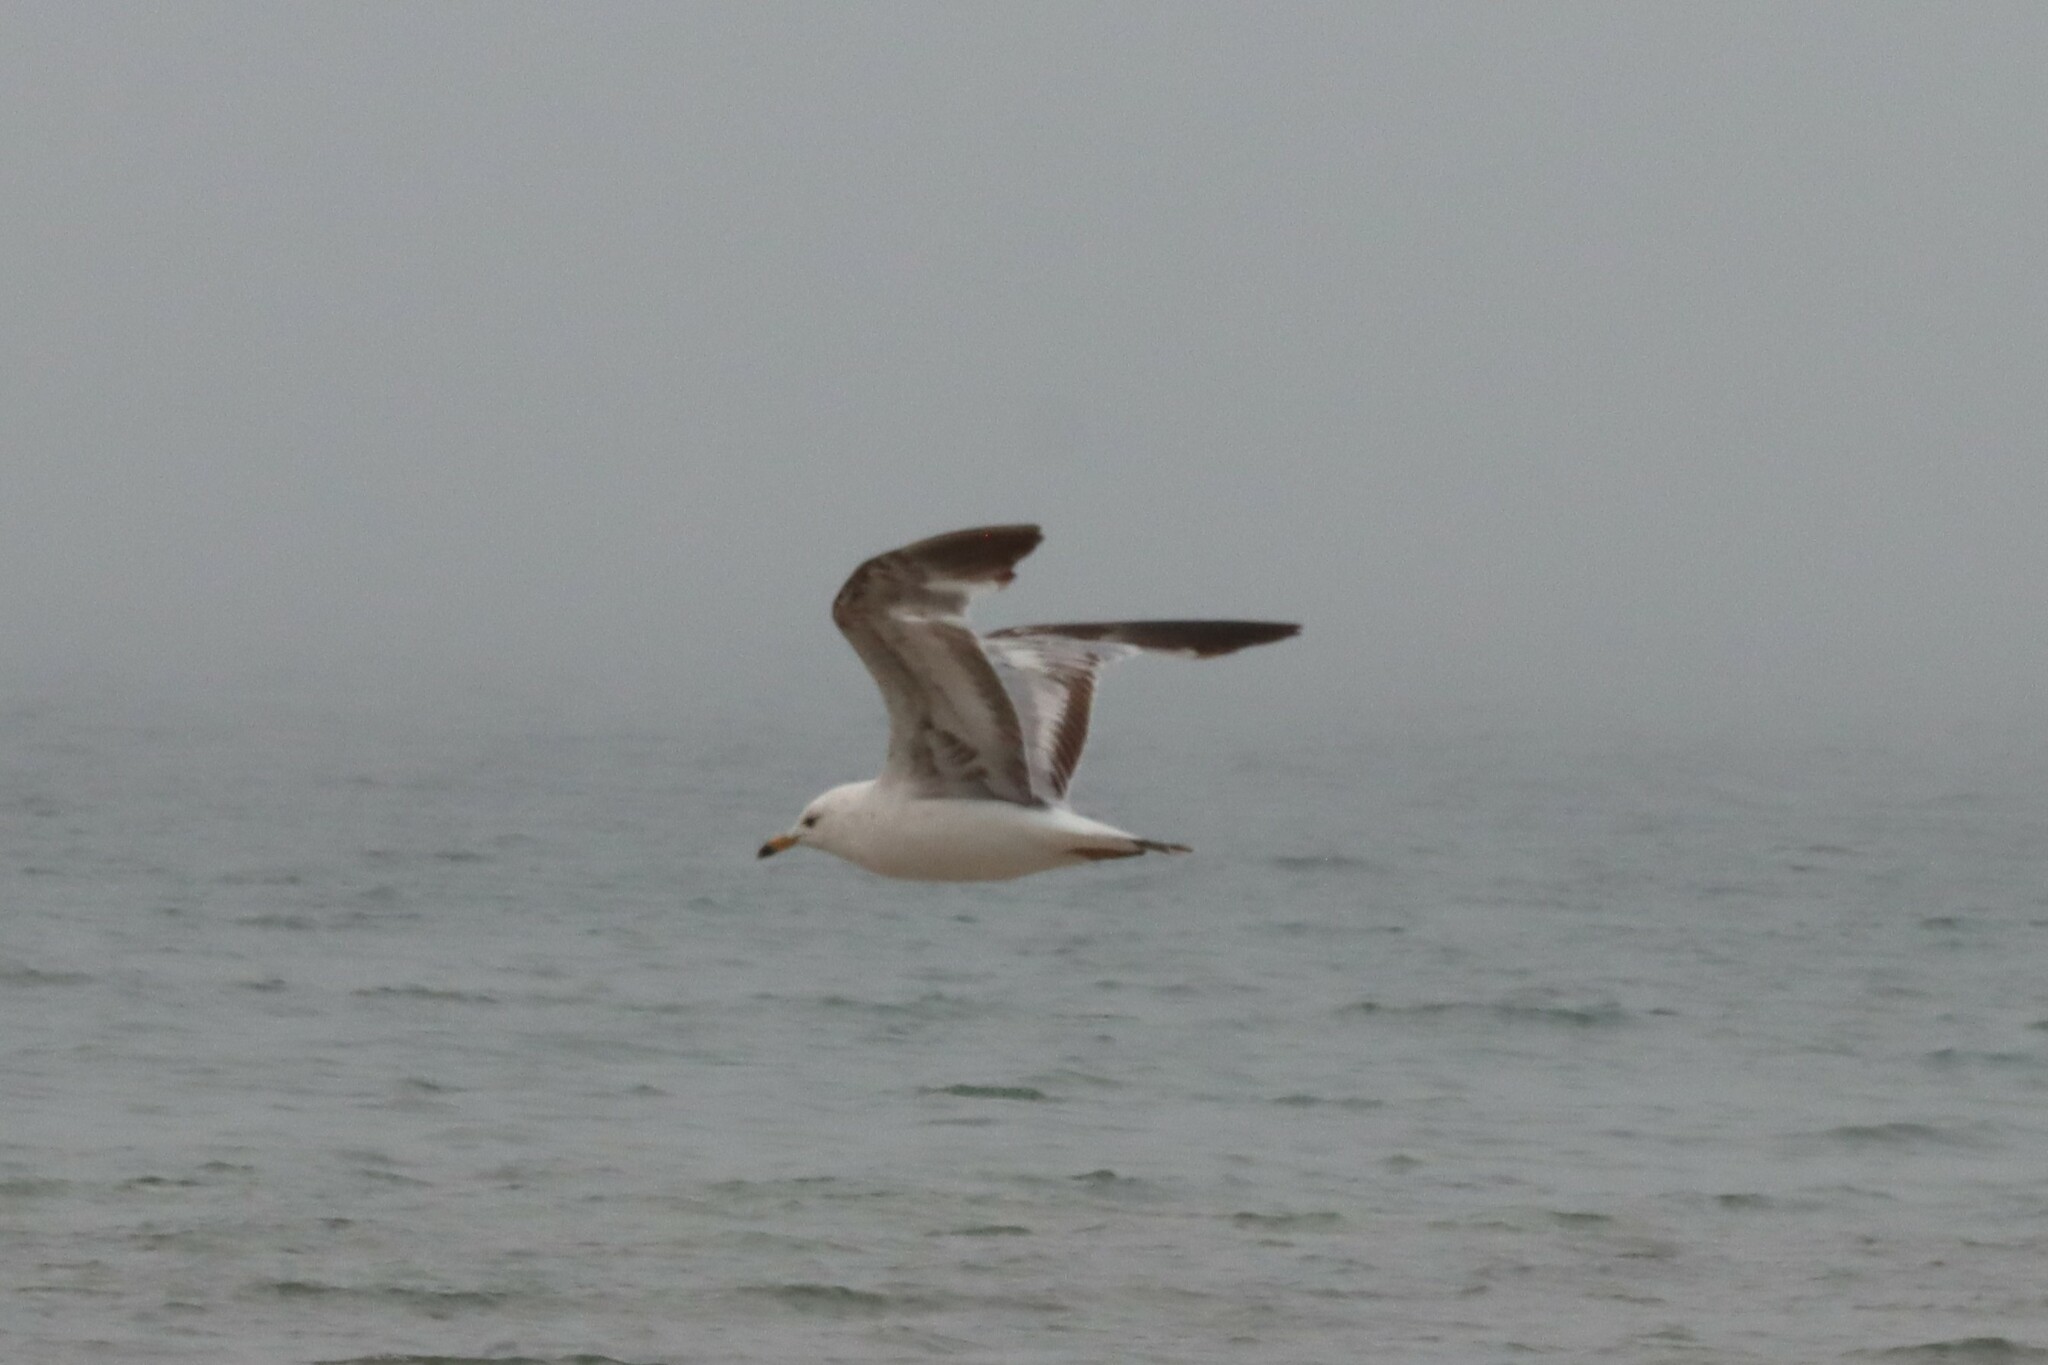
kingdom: Animalia
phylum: Chordata
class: Aves
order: Charadriiformes
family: Laridae
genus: Larus
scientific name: Larus delawarensis
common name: Ring-billed gull
